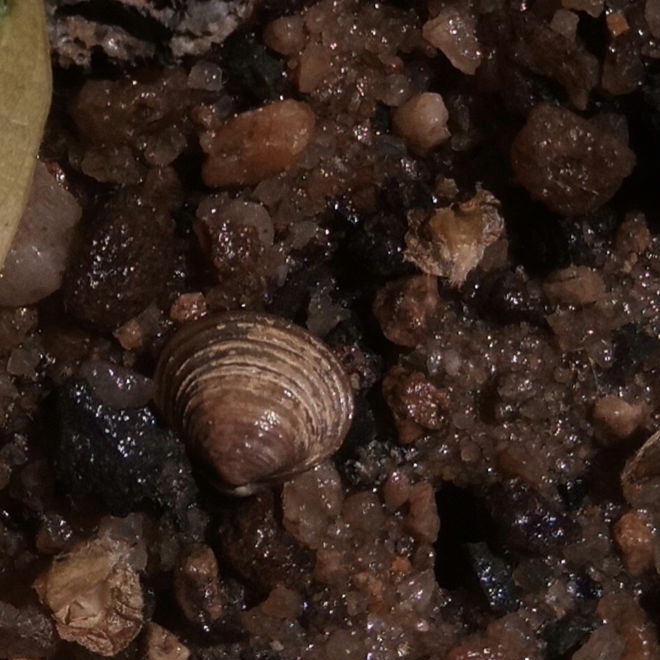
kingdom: Animalia
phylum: Mollusca
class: Bivalvia
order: Venerida
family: Cyrenidae
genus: Corbicula
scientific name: Corbicula fluminea
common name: Asian clam
